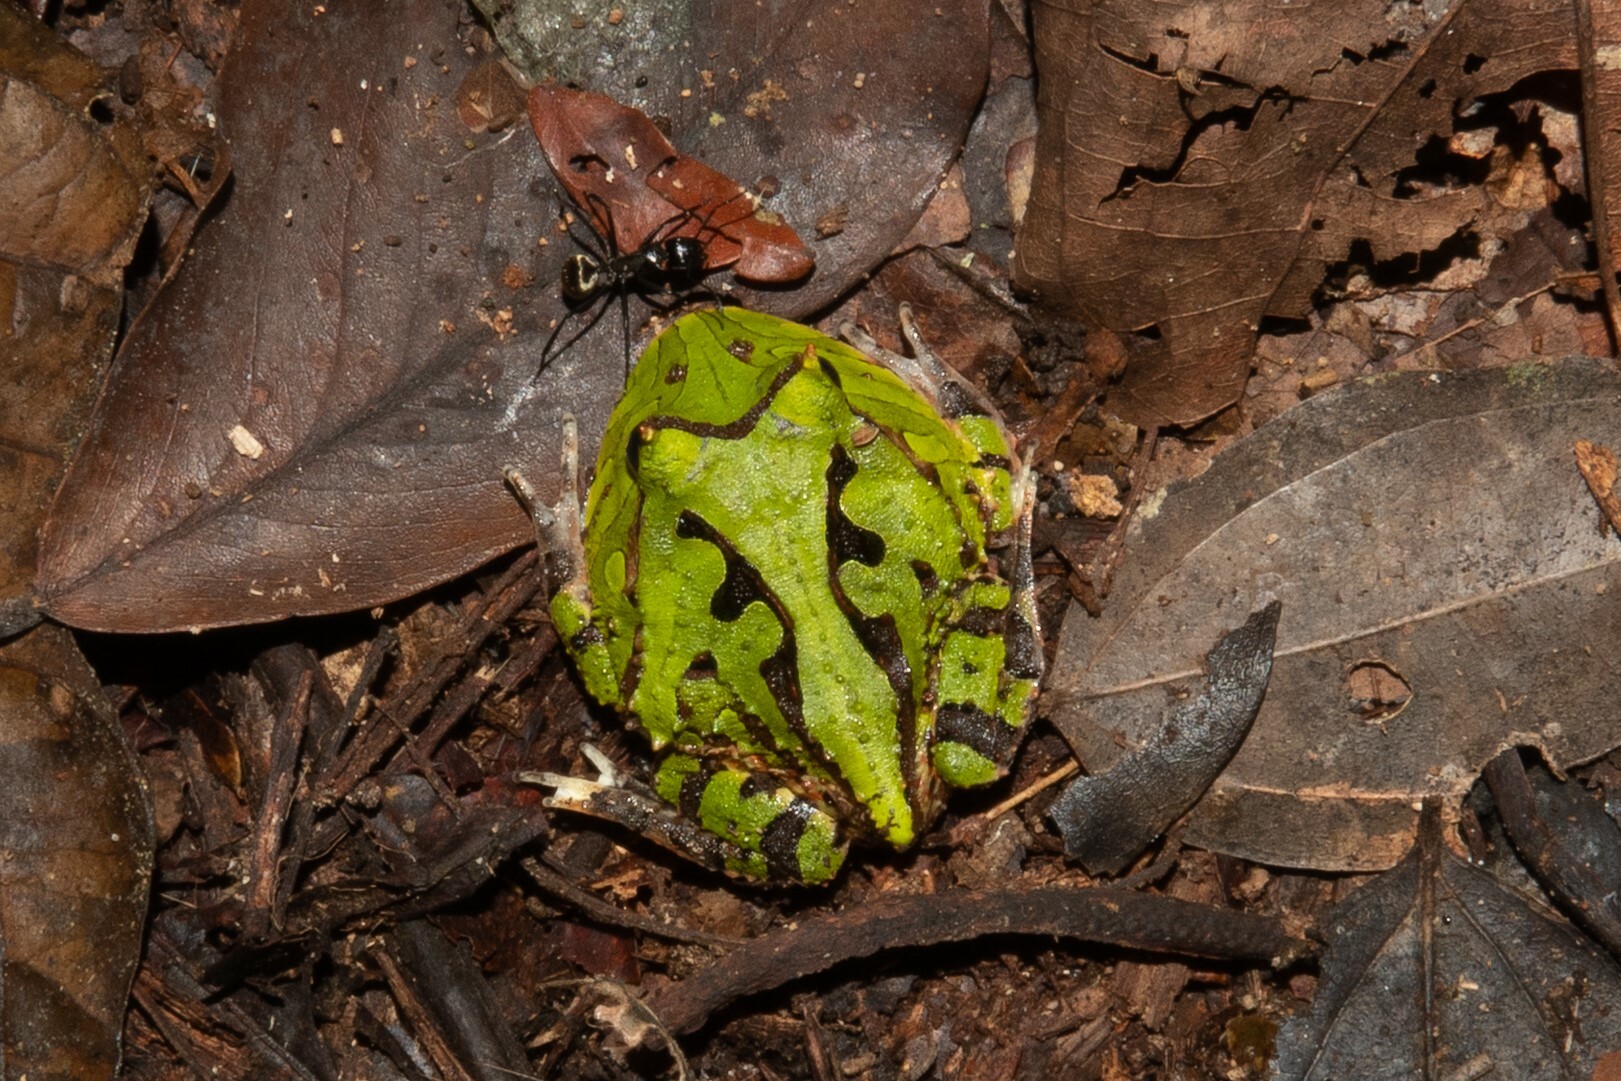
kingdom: Animalia
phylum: Chordata
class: Amphibia
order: Anura
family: Ceratophryidae
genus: Ceratophrys
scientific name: Ceratophrys cornuta
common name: Amazonian horned frog
